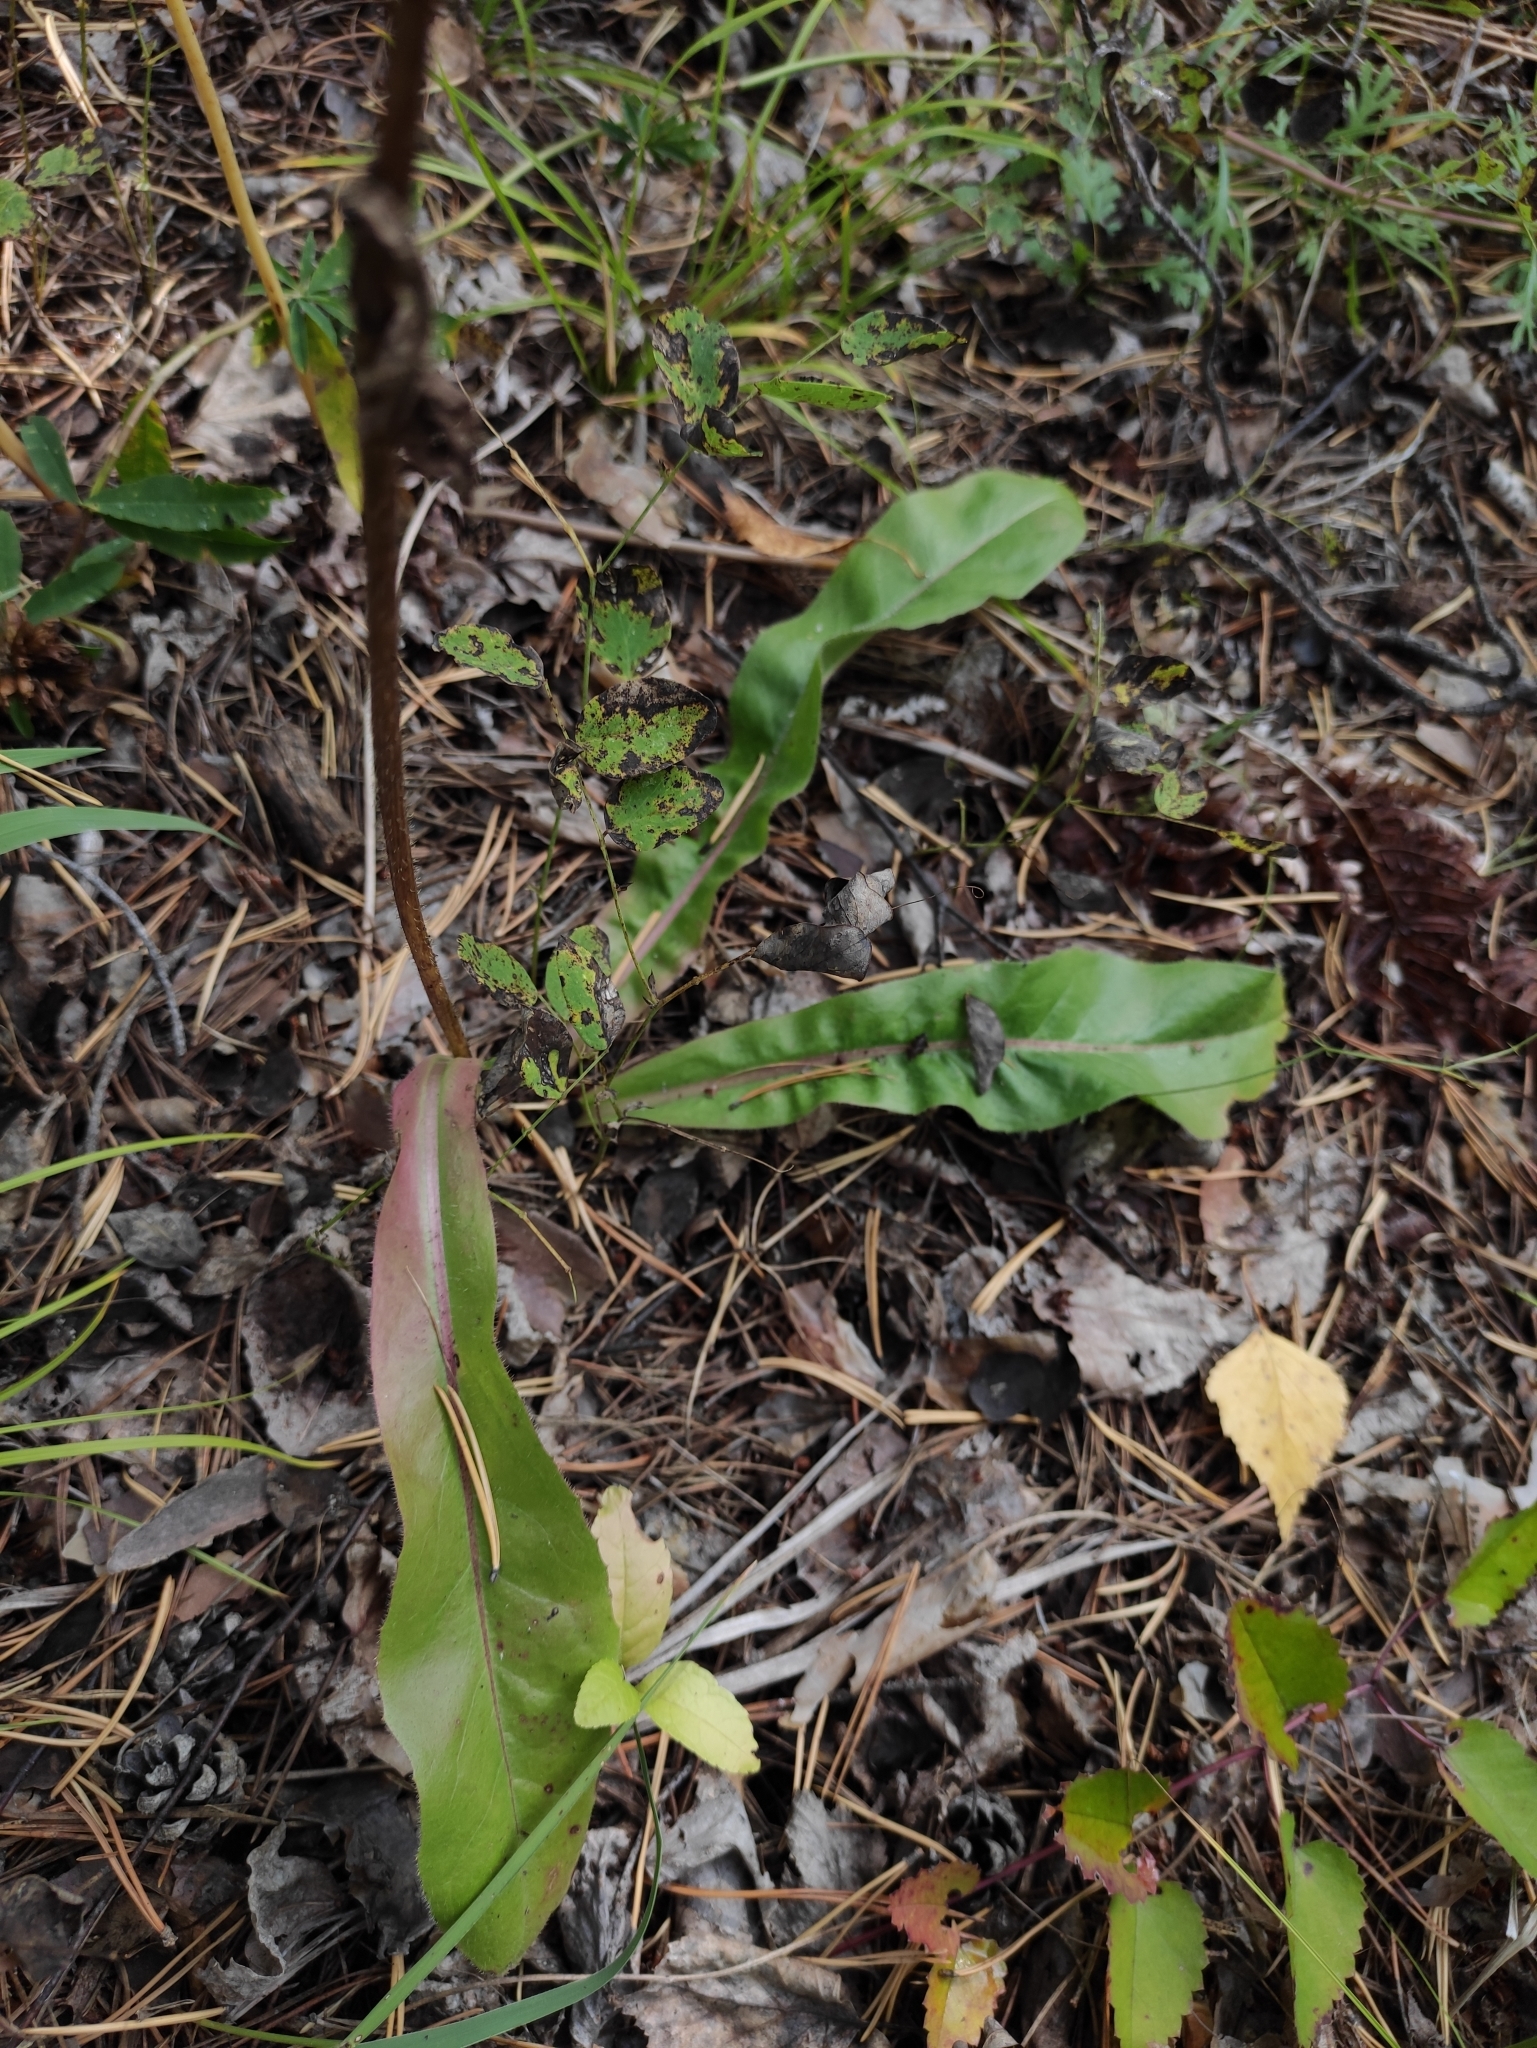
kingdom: Plantae
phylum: Tracheophyta
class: Magnoliopsida
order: Asterales
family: Asteraceae
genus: Trommsdorffia
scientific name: Trommsdorffia maculata
